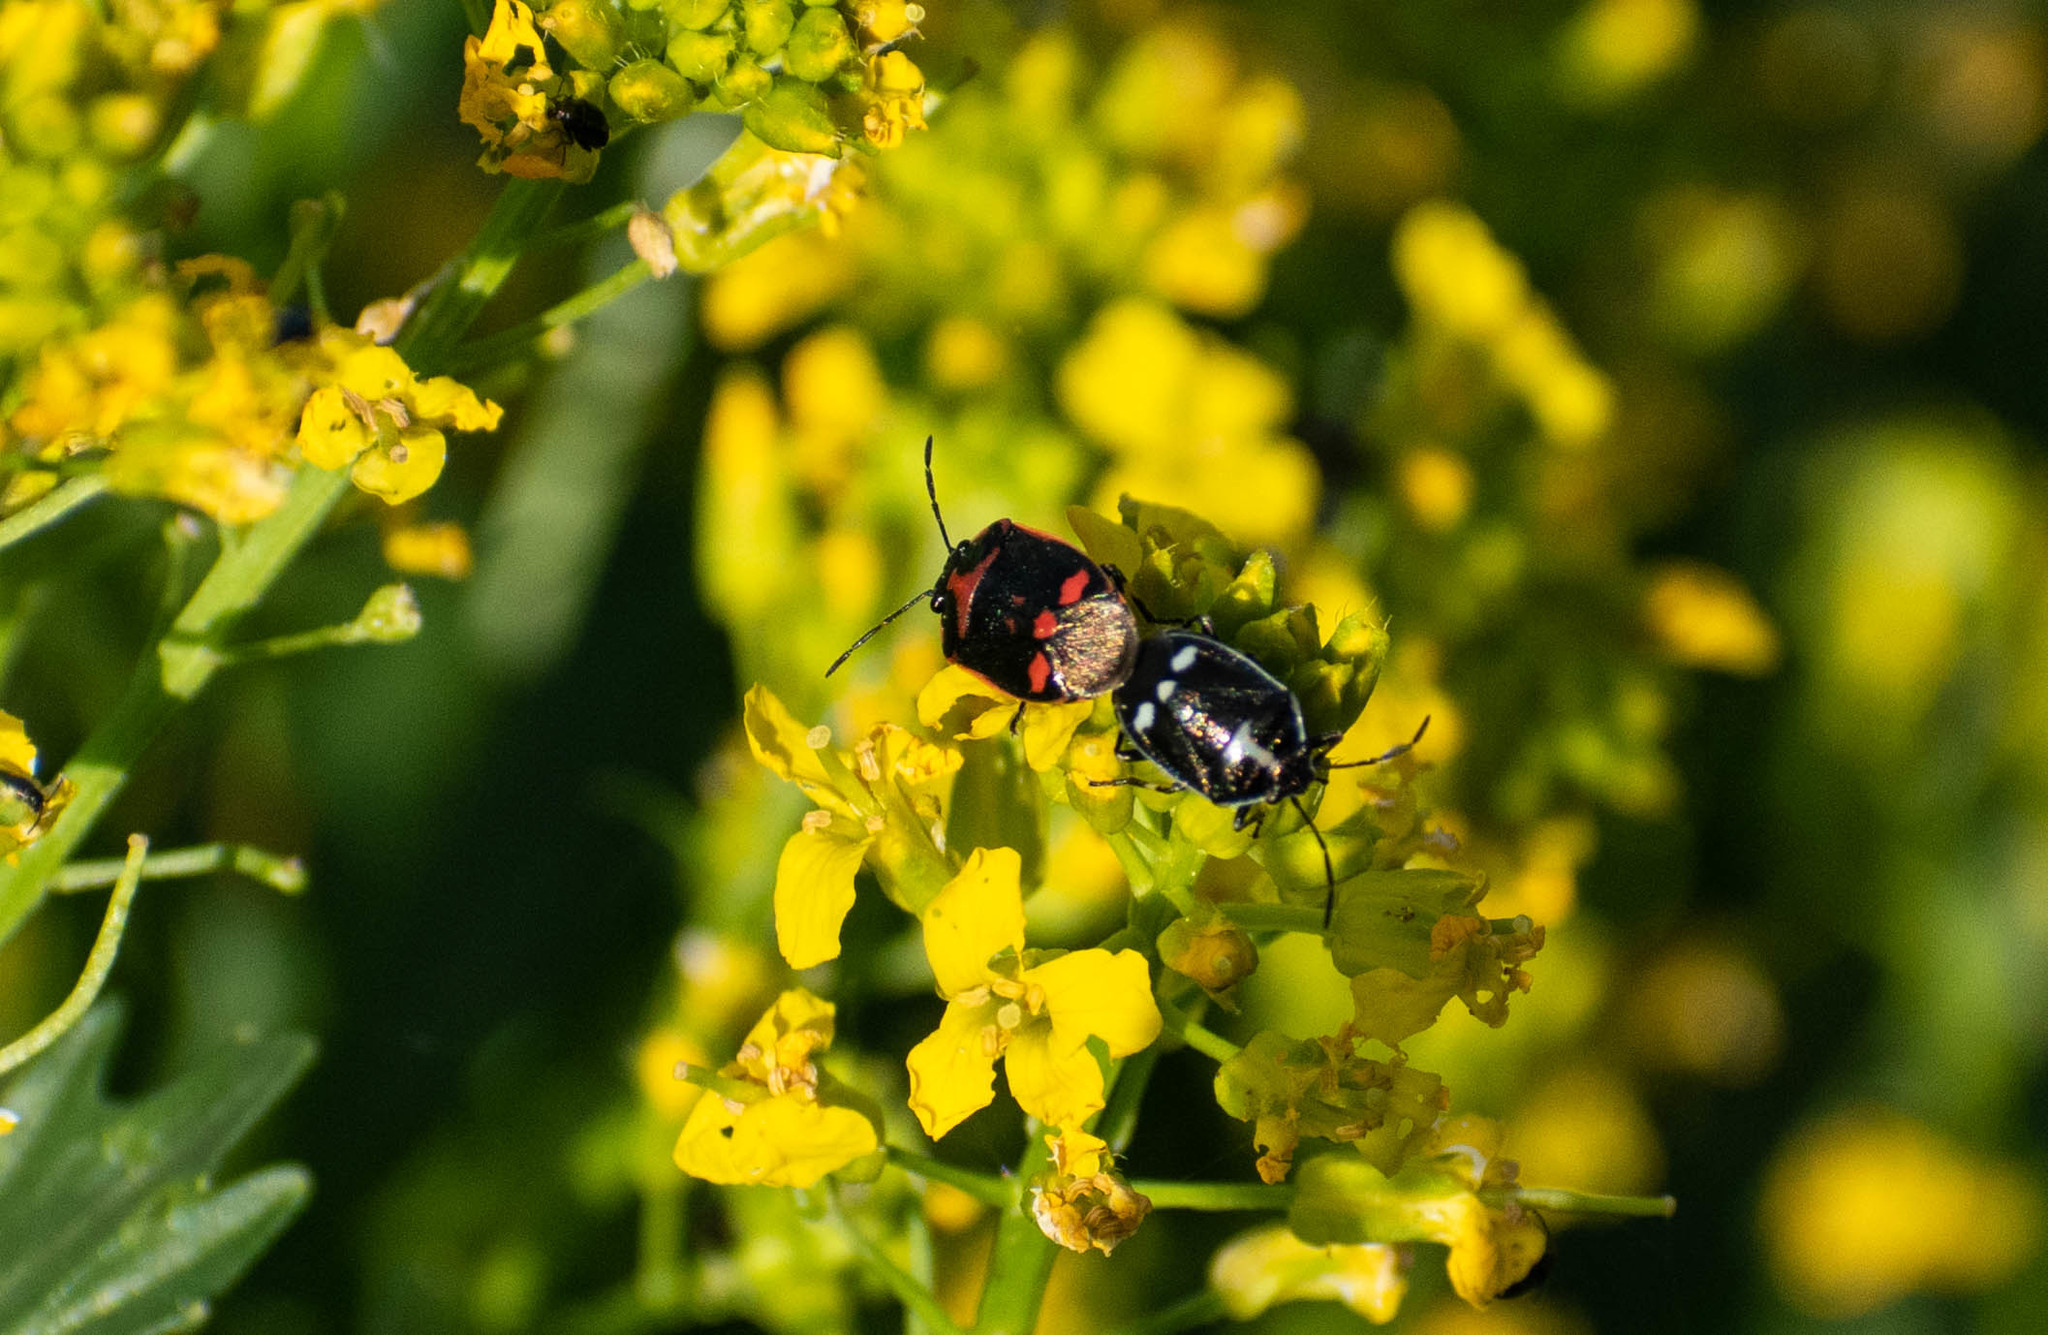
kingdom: Animalia
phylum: Arthropoda
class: Insecta
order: Hemiptera
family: Pentatomidae
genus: Eurydema
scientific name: Eurydema oleracea
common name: Cabbage bug
